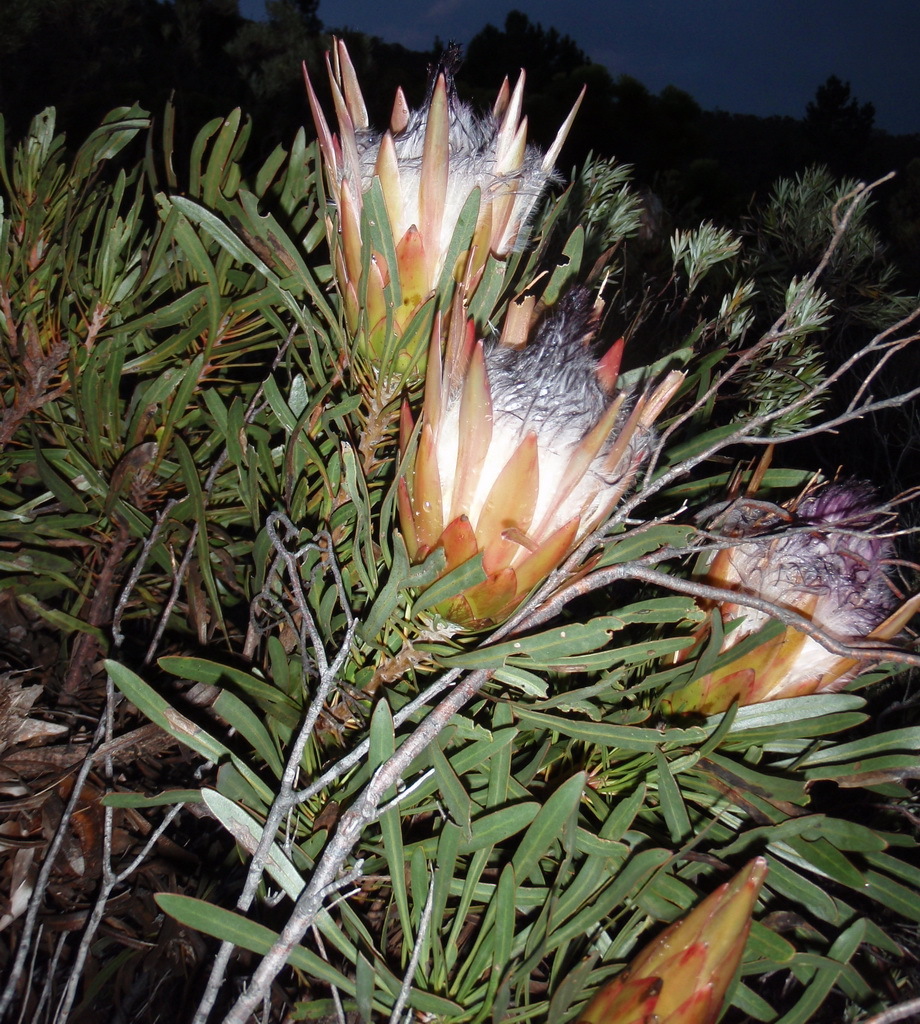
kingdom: Plantae
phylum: Tracheophyta
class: Magnoliopsida
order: Proteales
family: Proteaceae
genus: Protea
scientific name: Protea longifolia
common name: Long-leaf sugarbush
